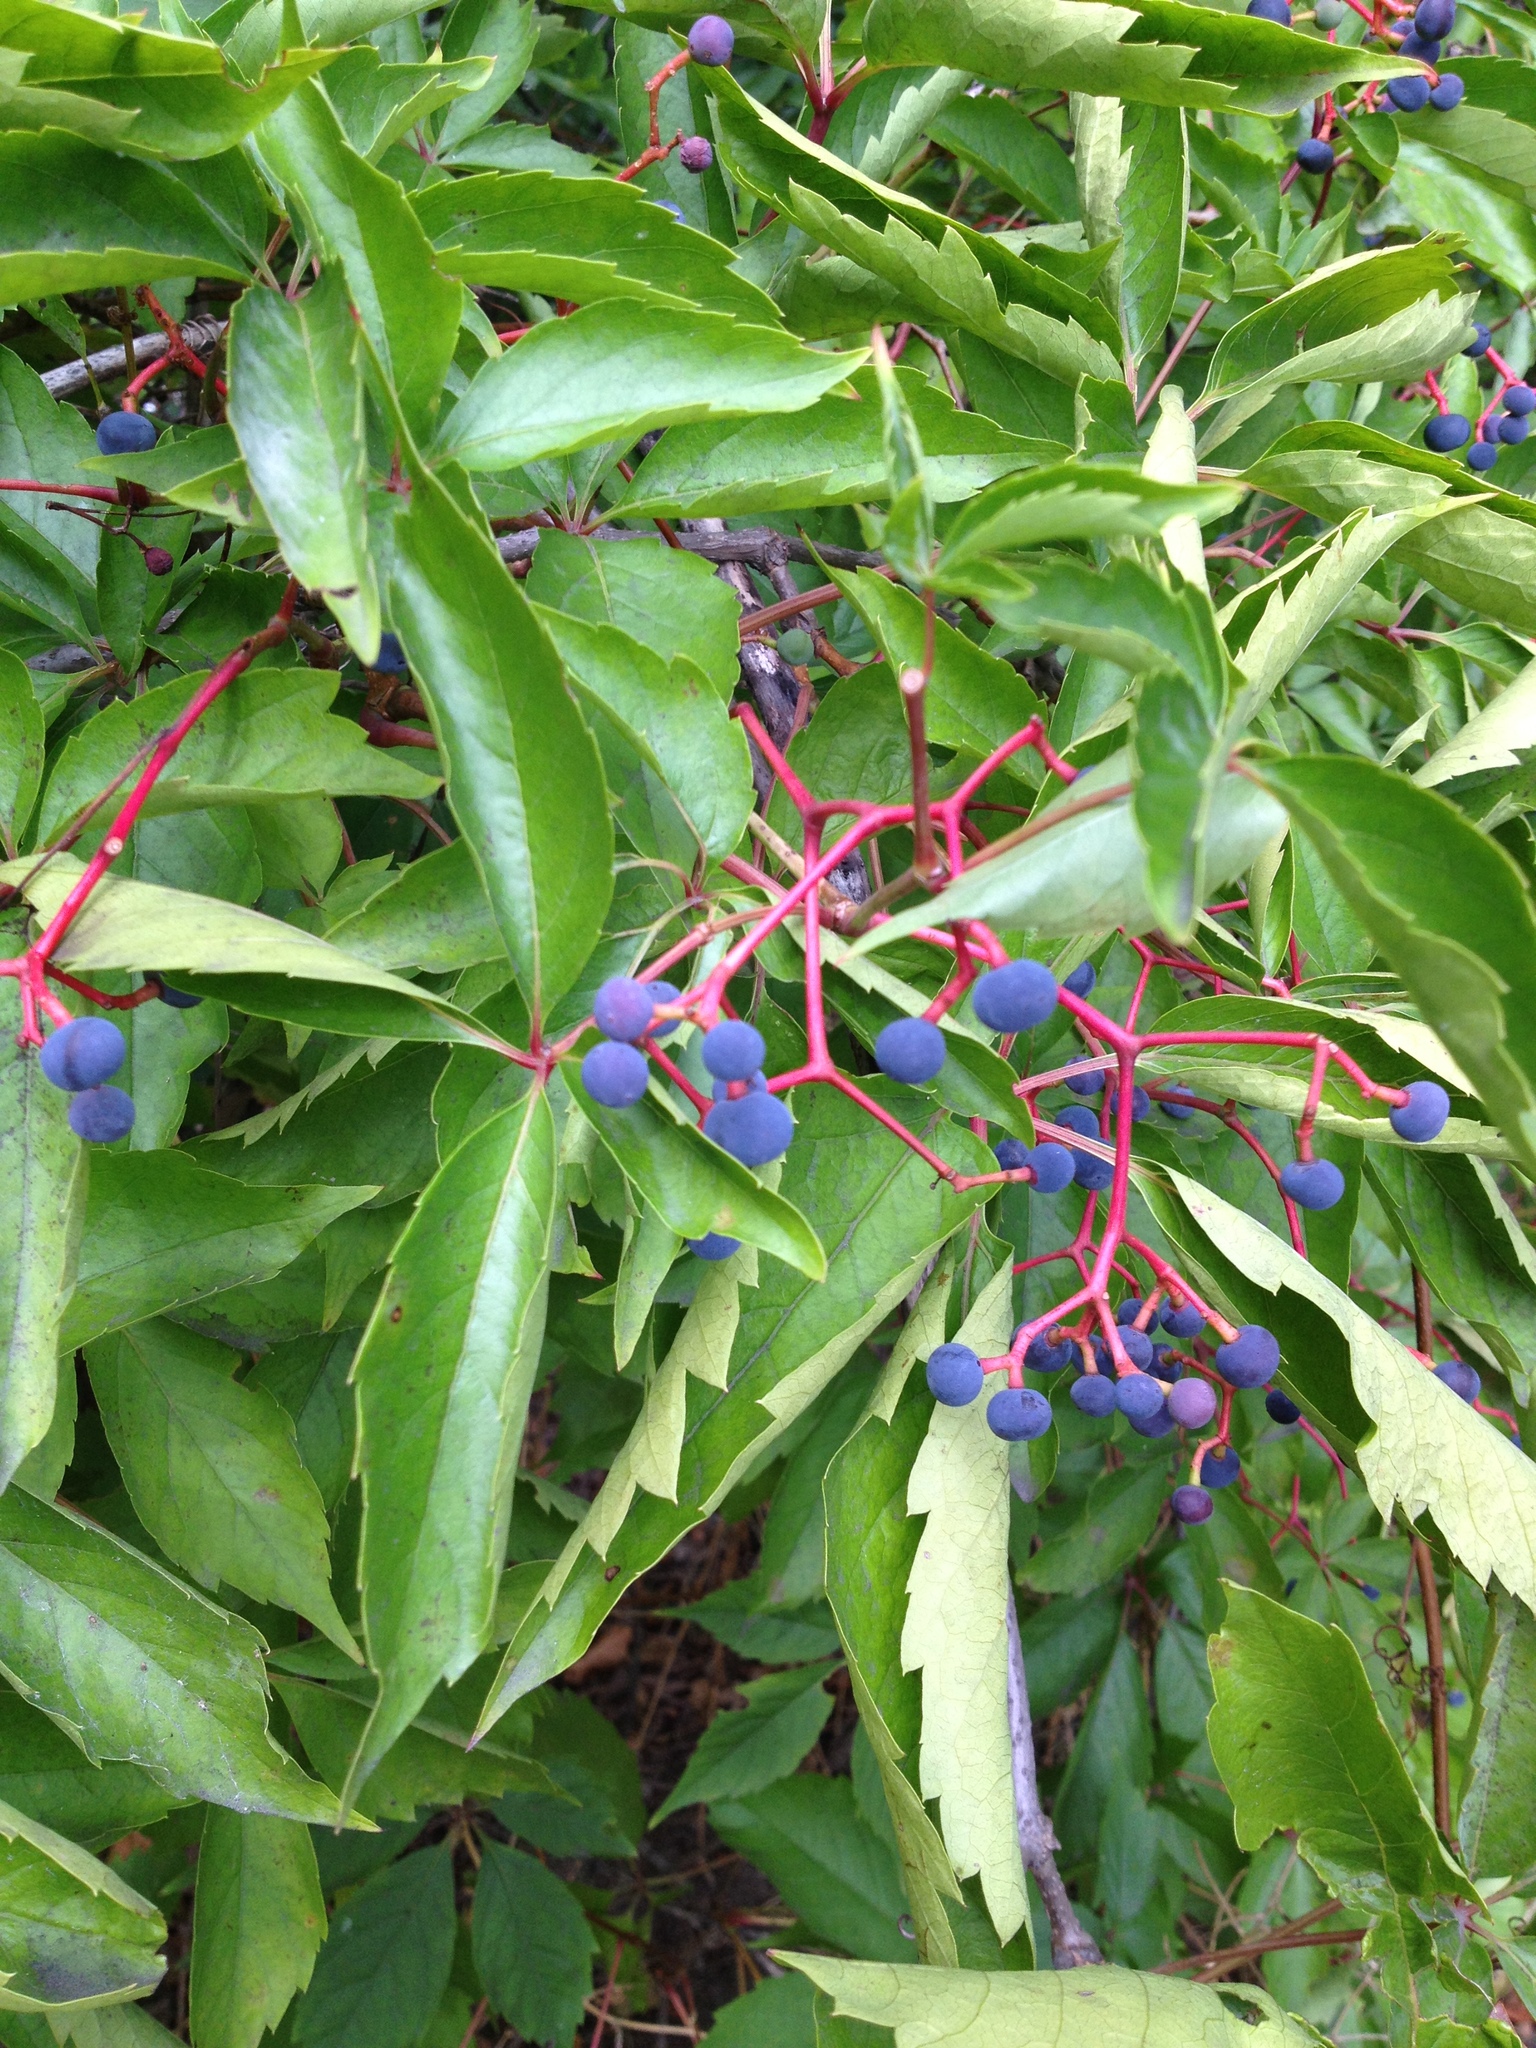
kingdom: Plantae
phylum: Tracheophyta
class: Magnoliopsida
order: Vitales
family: Vitaceae
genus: Parthenocissus
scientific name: Parthenocissus quinquefolia
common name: Virginia-creeper
